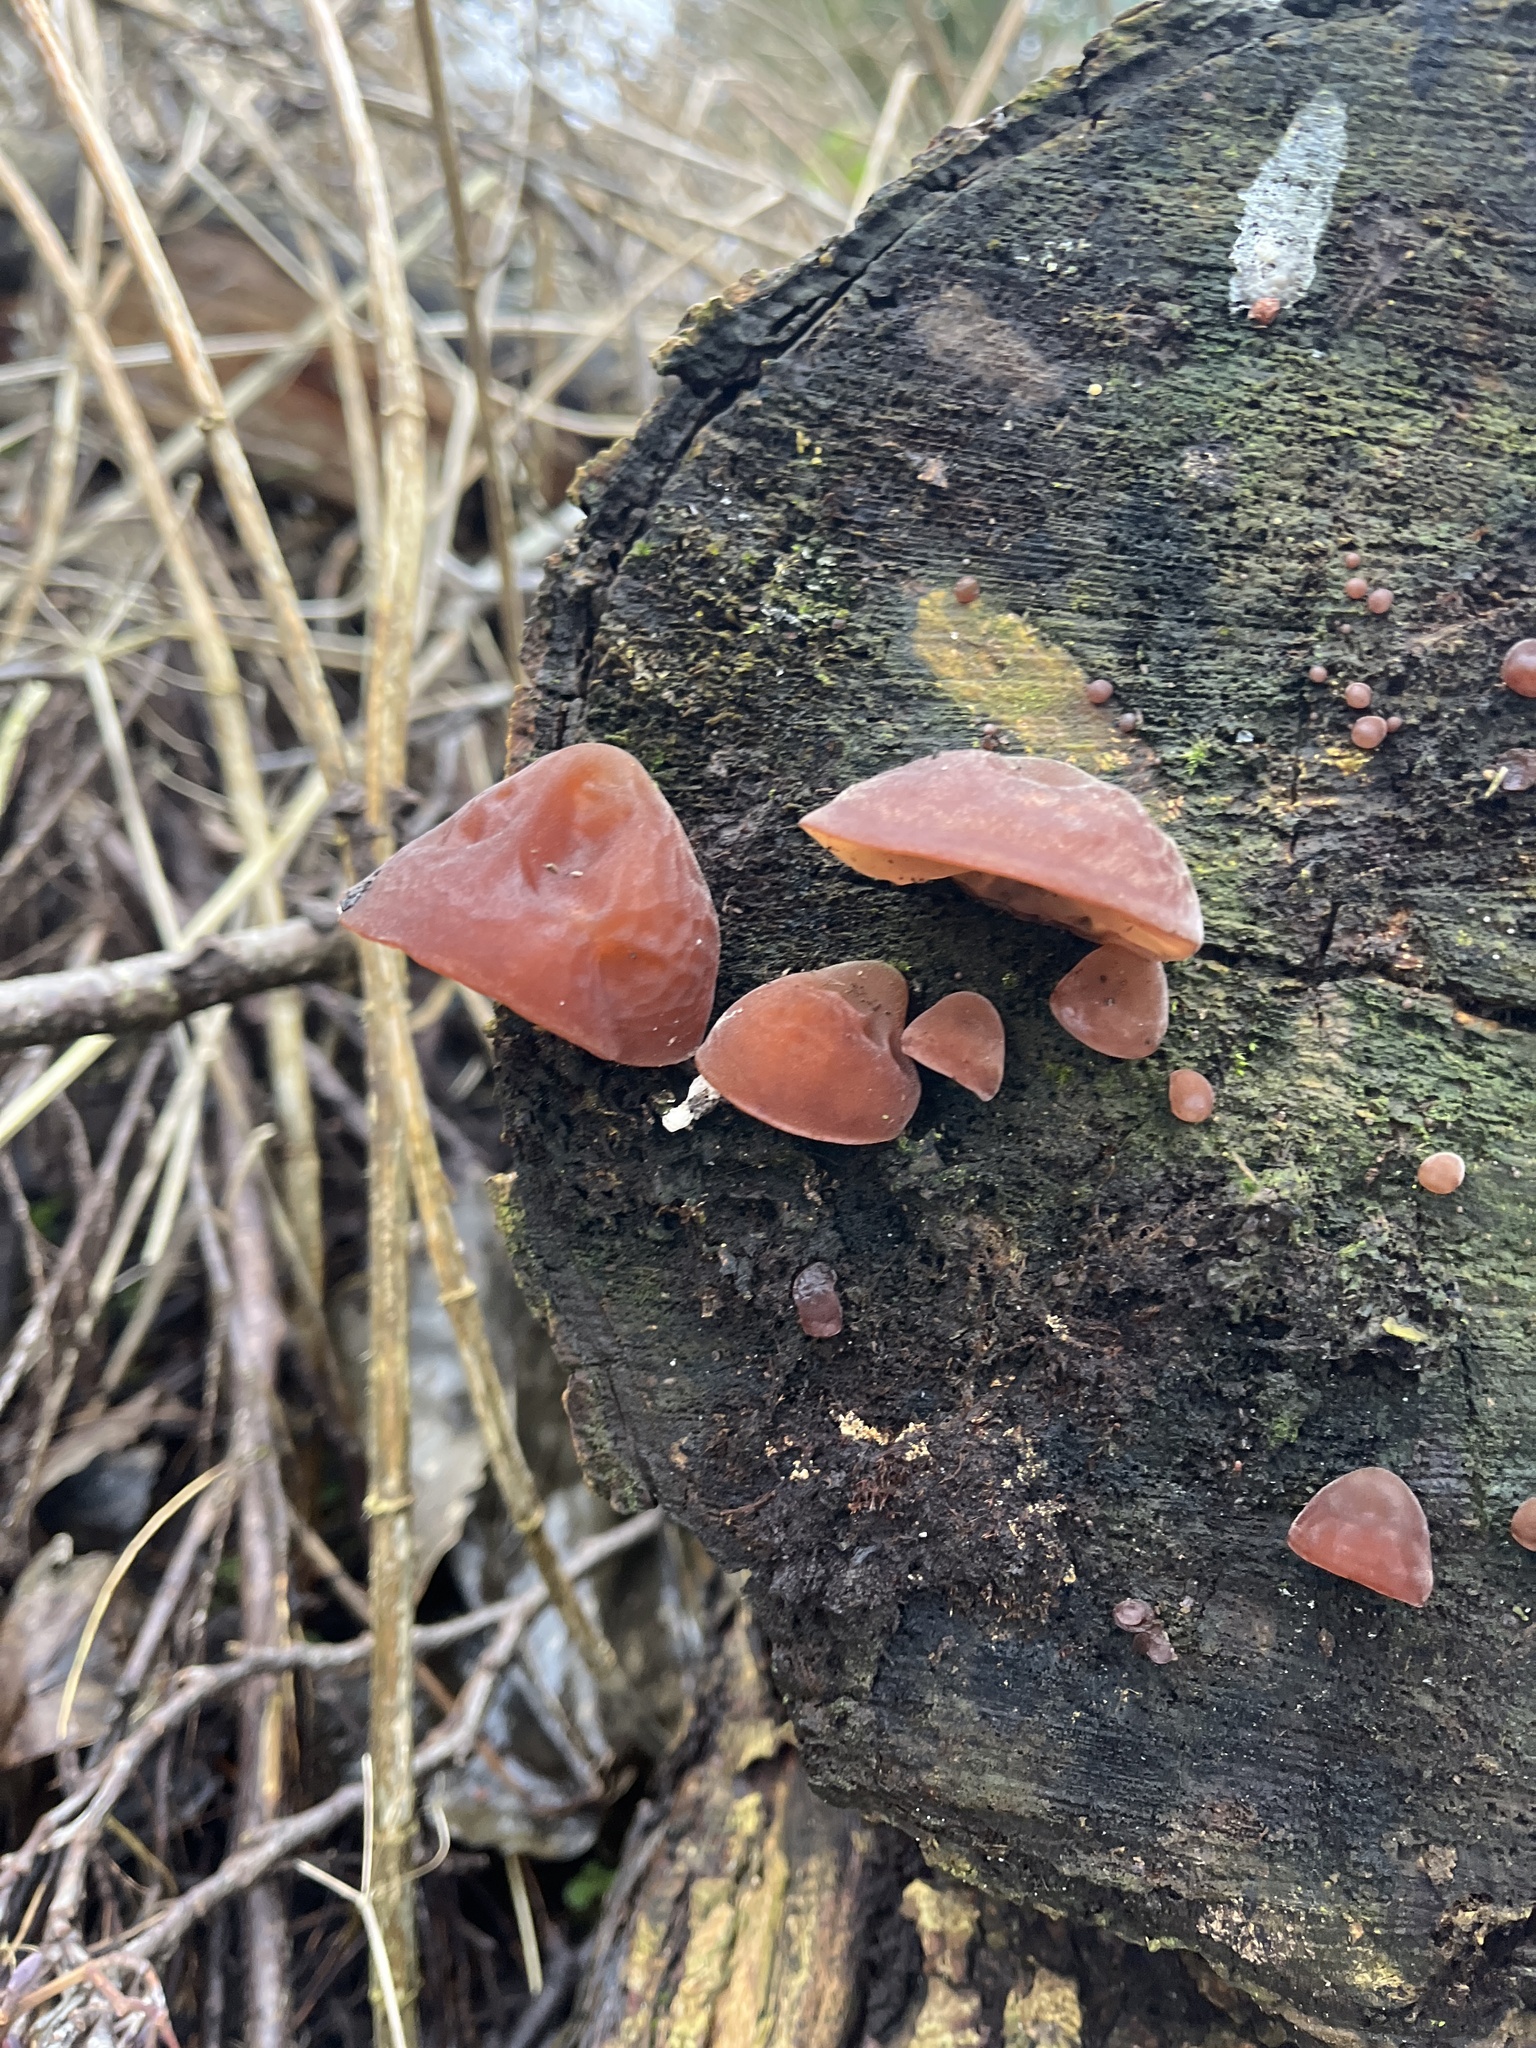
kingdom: Fungi
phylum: Basidiomycota
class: Agaricomycetes
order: Auriculariales
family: Auriculariaceae
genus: Auricularia
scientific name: Auricularia auricula-judae
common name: Jelly ear
